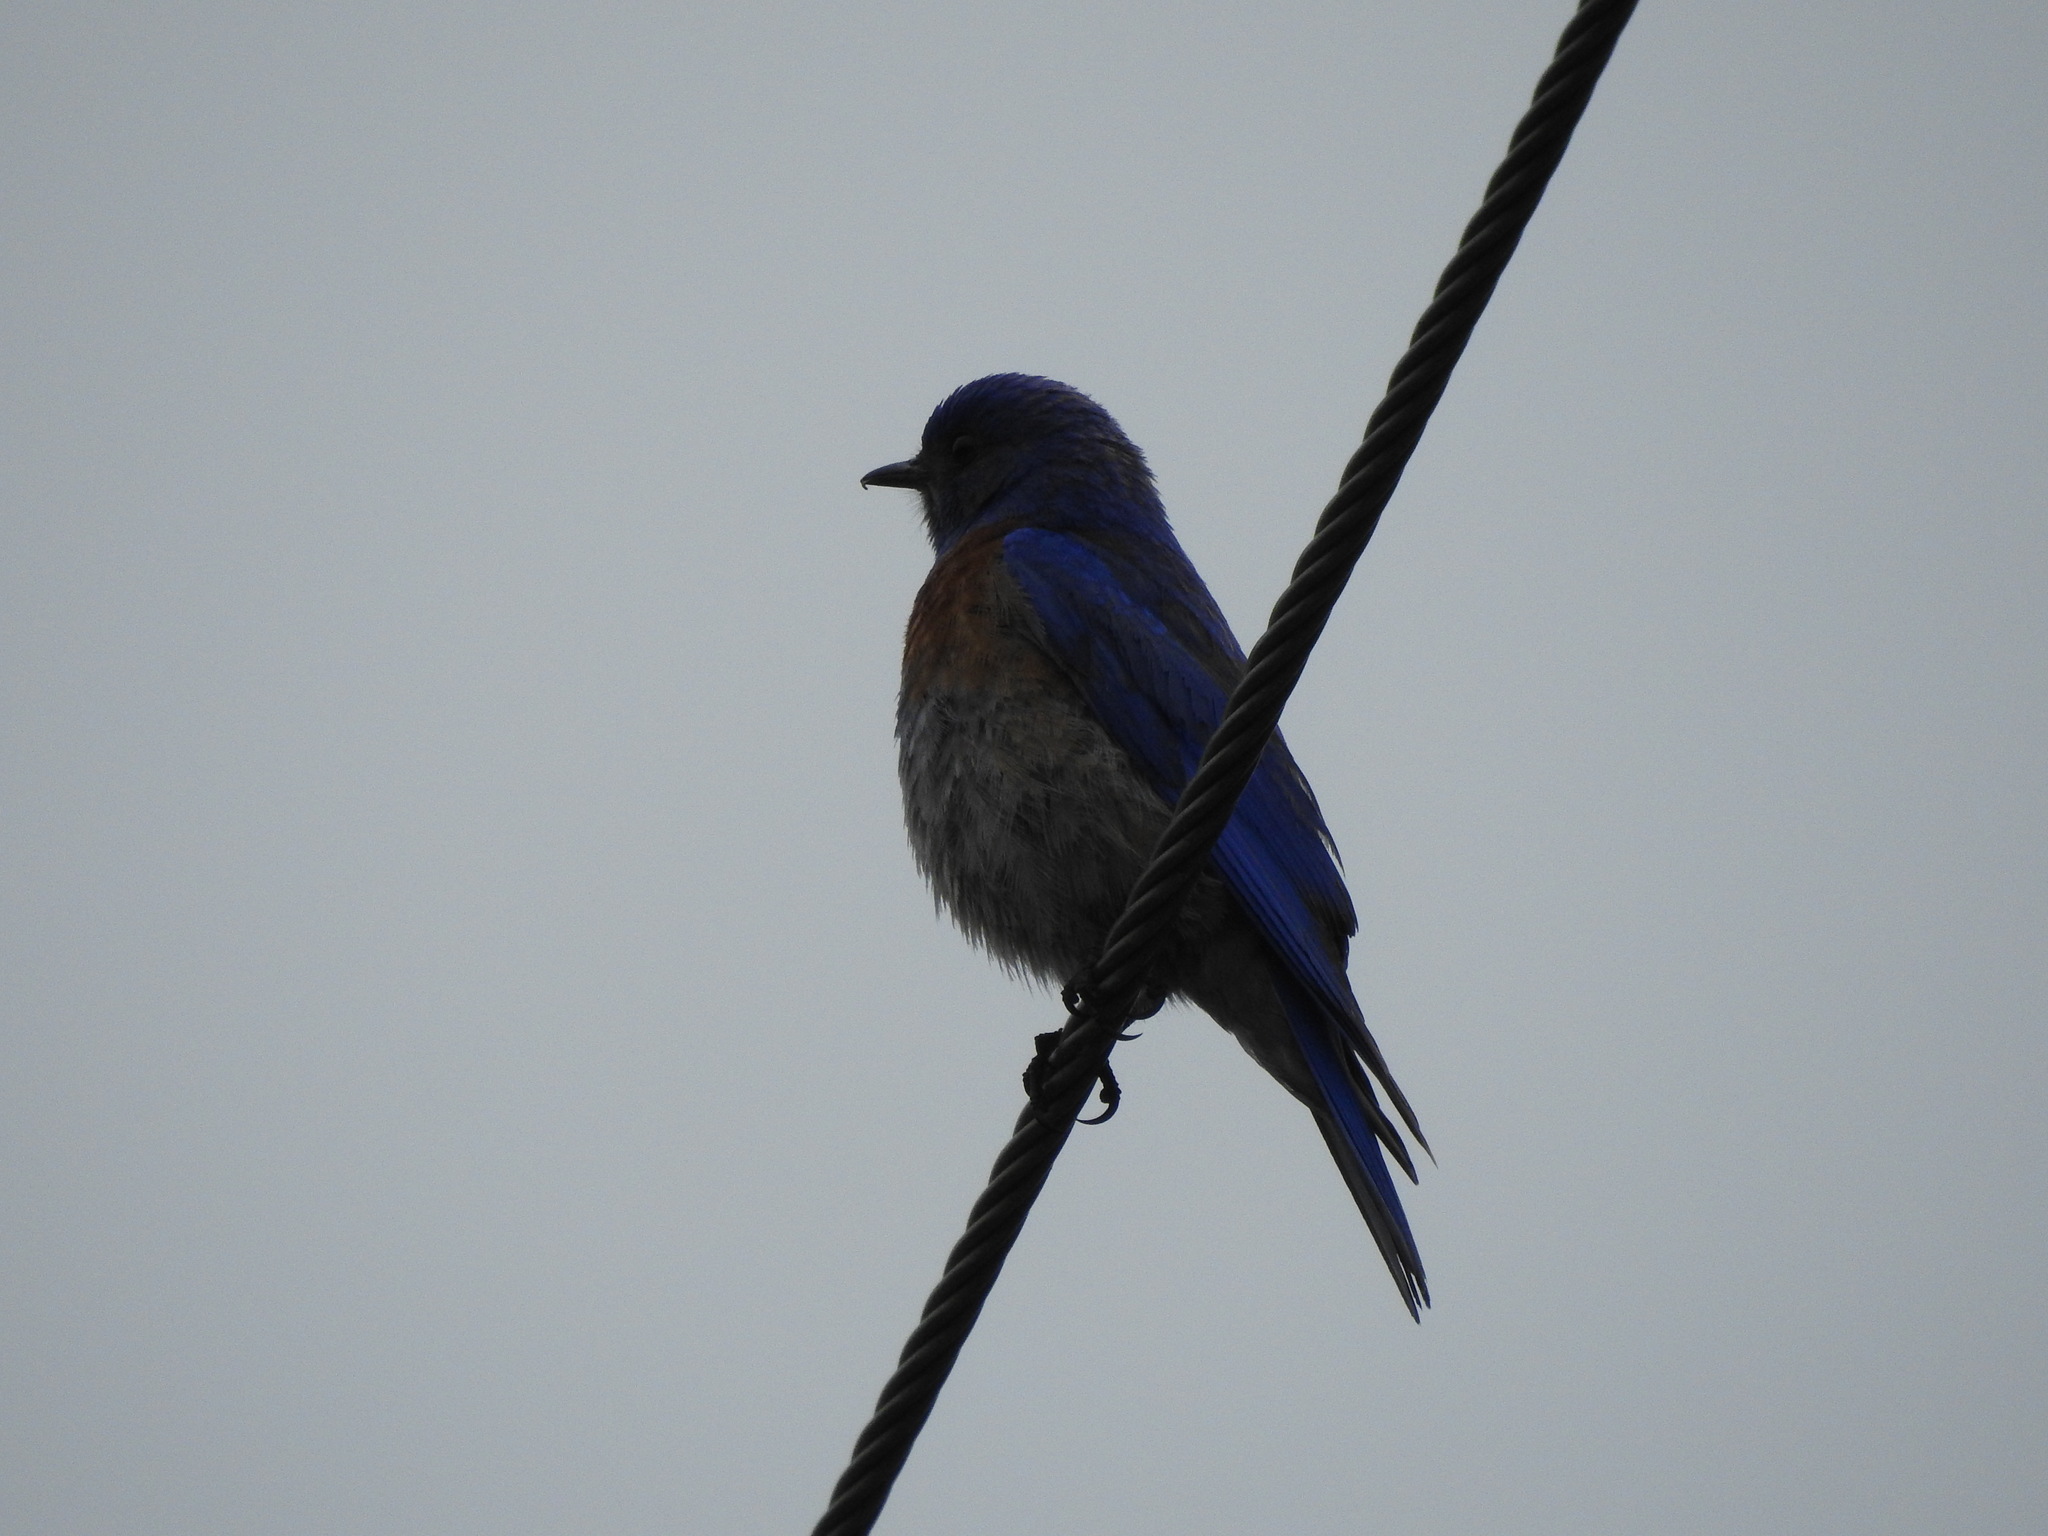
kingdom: Animalia
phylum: Chordata
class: Aves
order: Passeriformes
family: Turdidae
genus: Sialia
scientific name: Sialia mexicana
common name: Western bluebird
